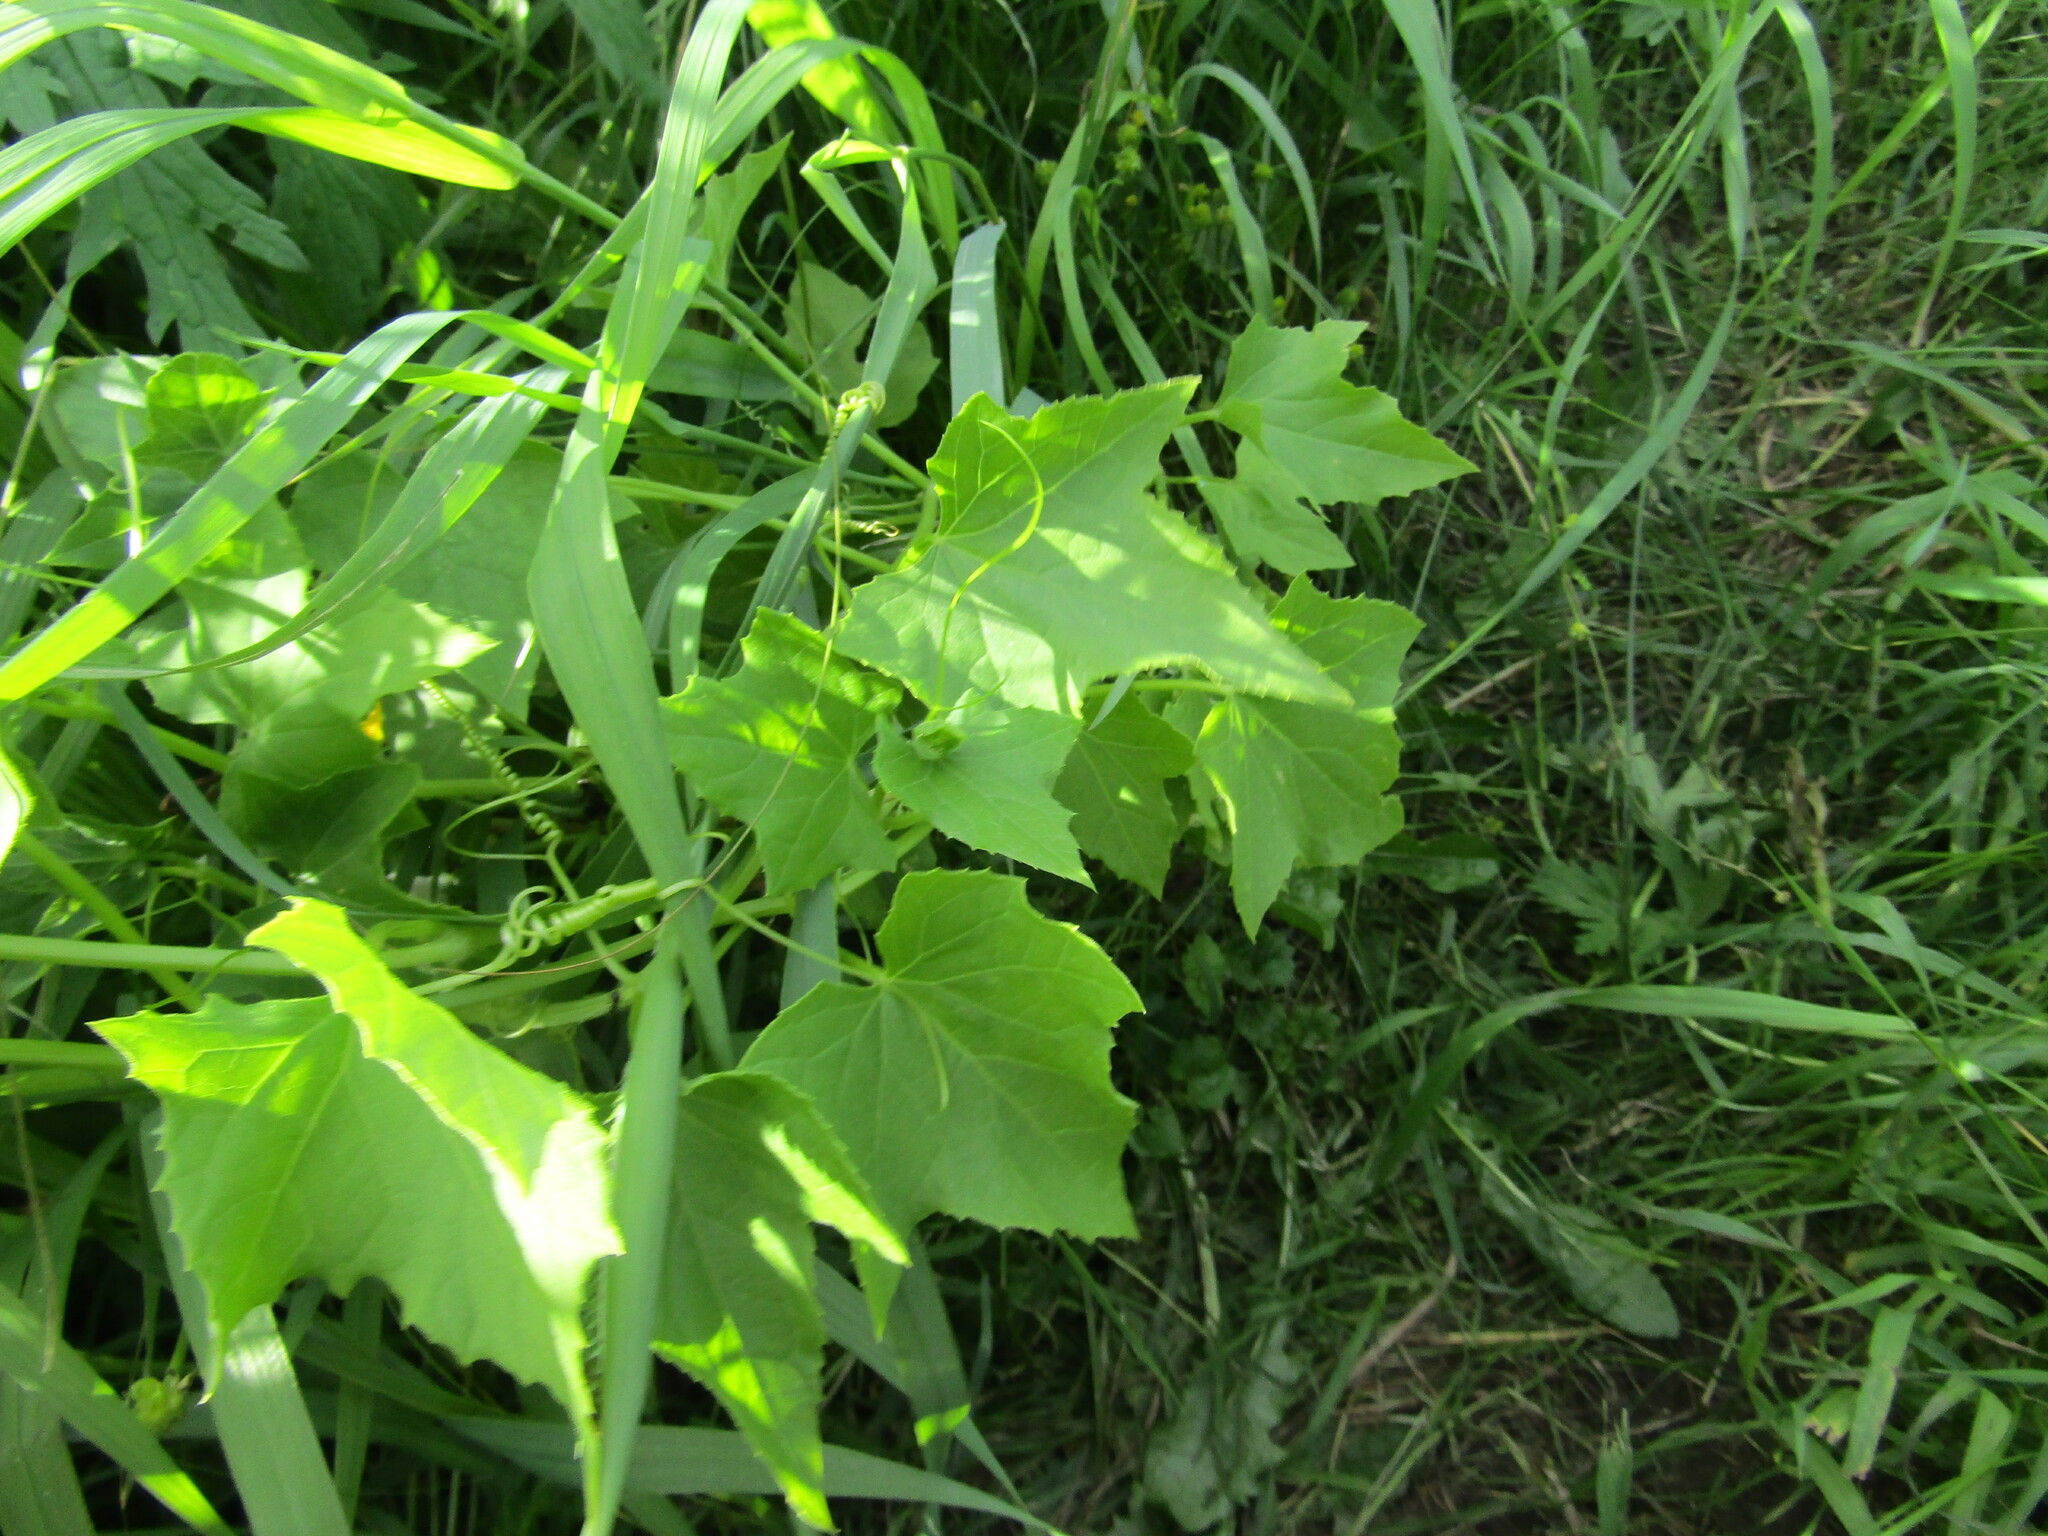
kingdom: Plantae
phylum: Tracheophyta
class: Magnoliopsida
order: Cucurbitales
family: Cucurbitaceae
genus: Echinocystis
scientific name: Echinocystis lobata
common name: Wild cucumber
